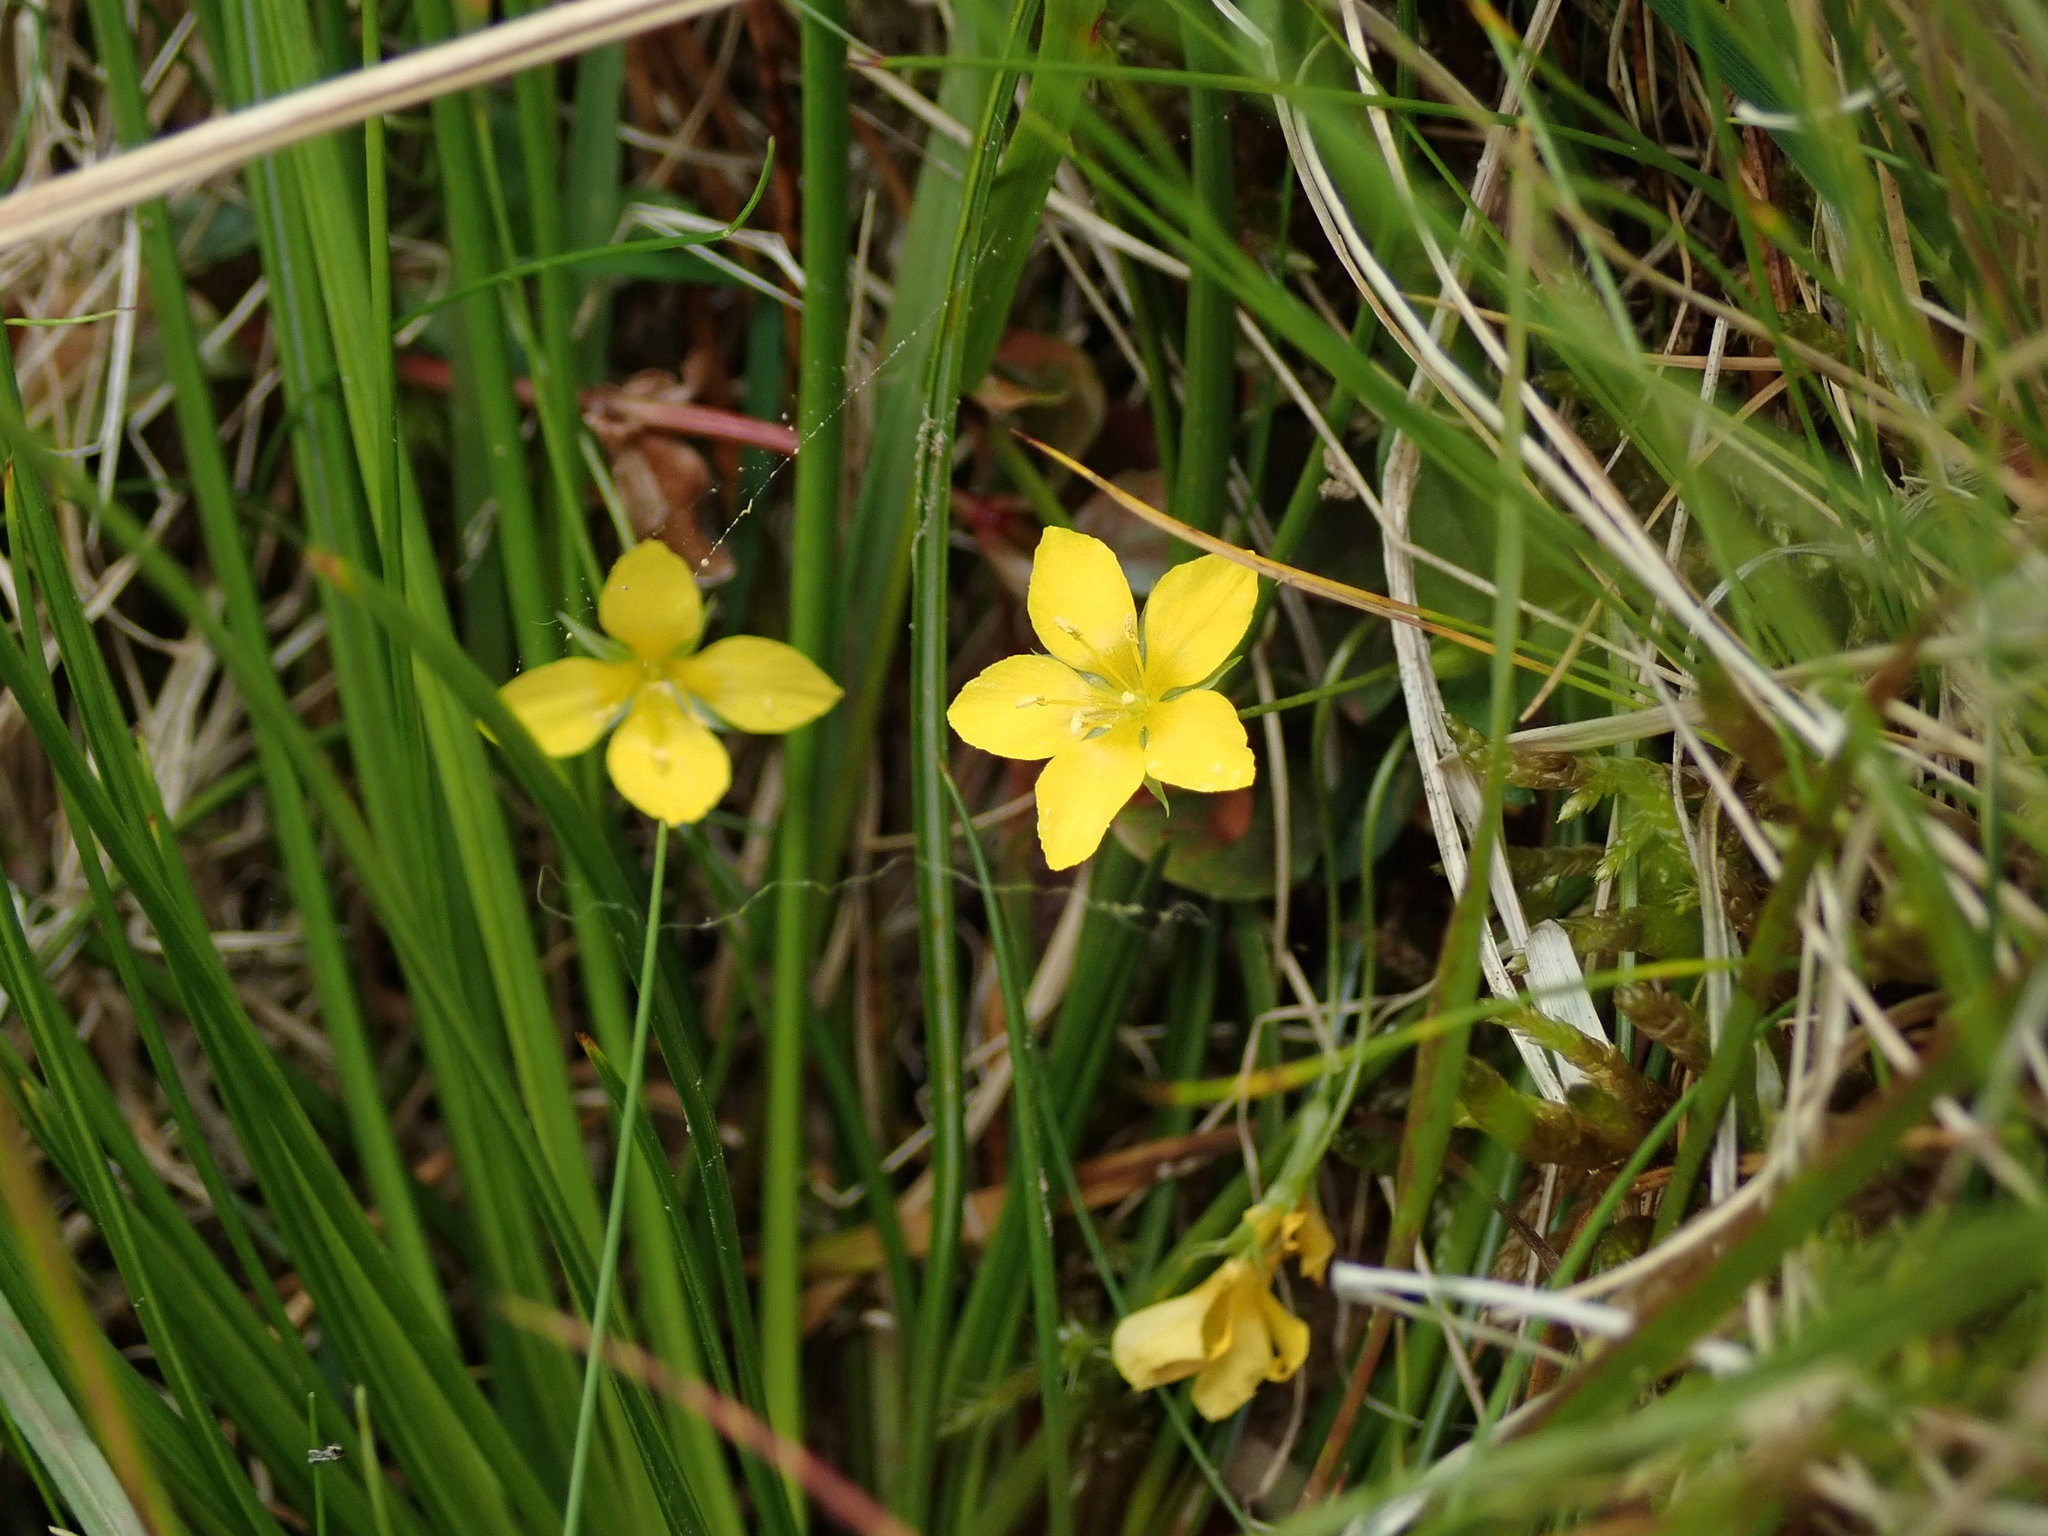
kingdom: Plantae
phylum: Tracheophyta
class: Magnoliopsida
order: Ericales
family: Primulaceae
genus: Lysimachia
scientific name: Lysimachia nemorum
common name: Yellow pimpernel
